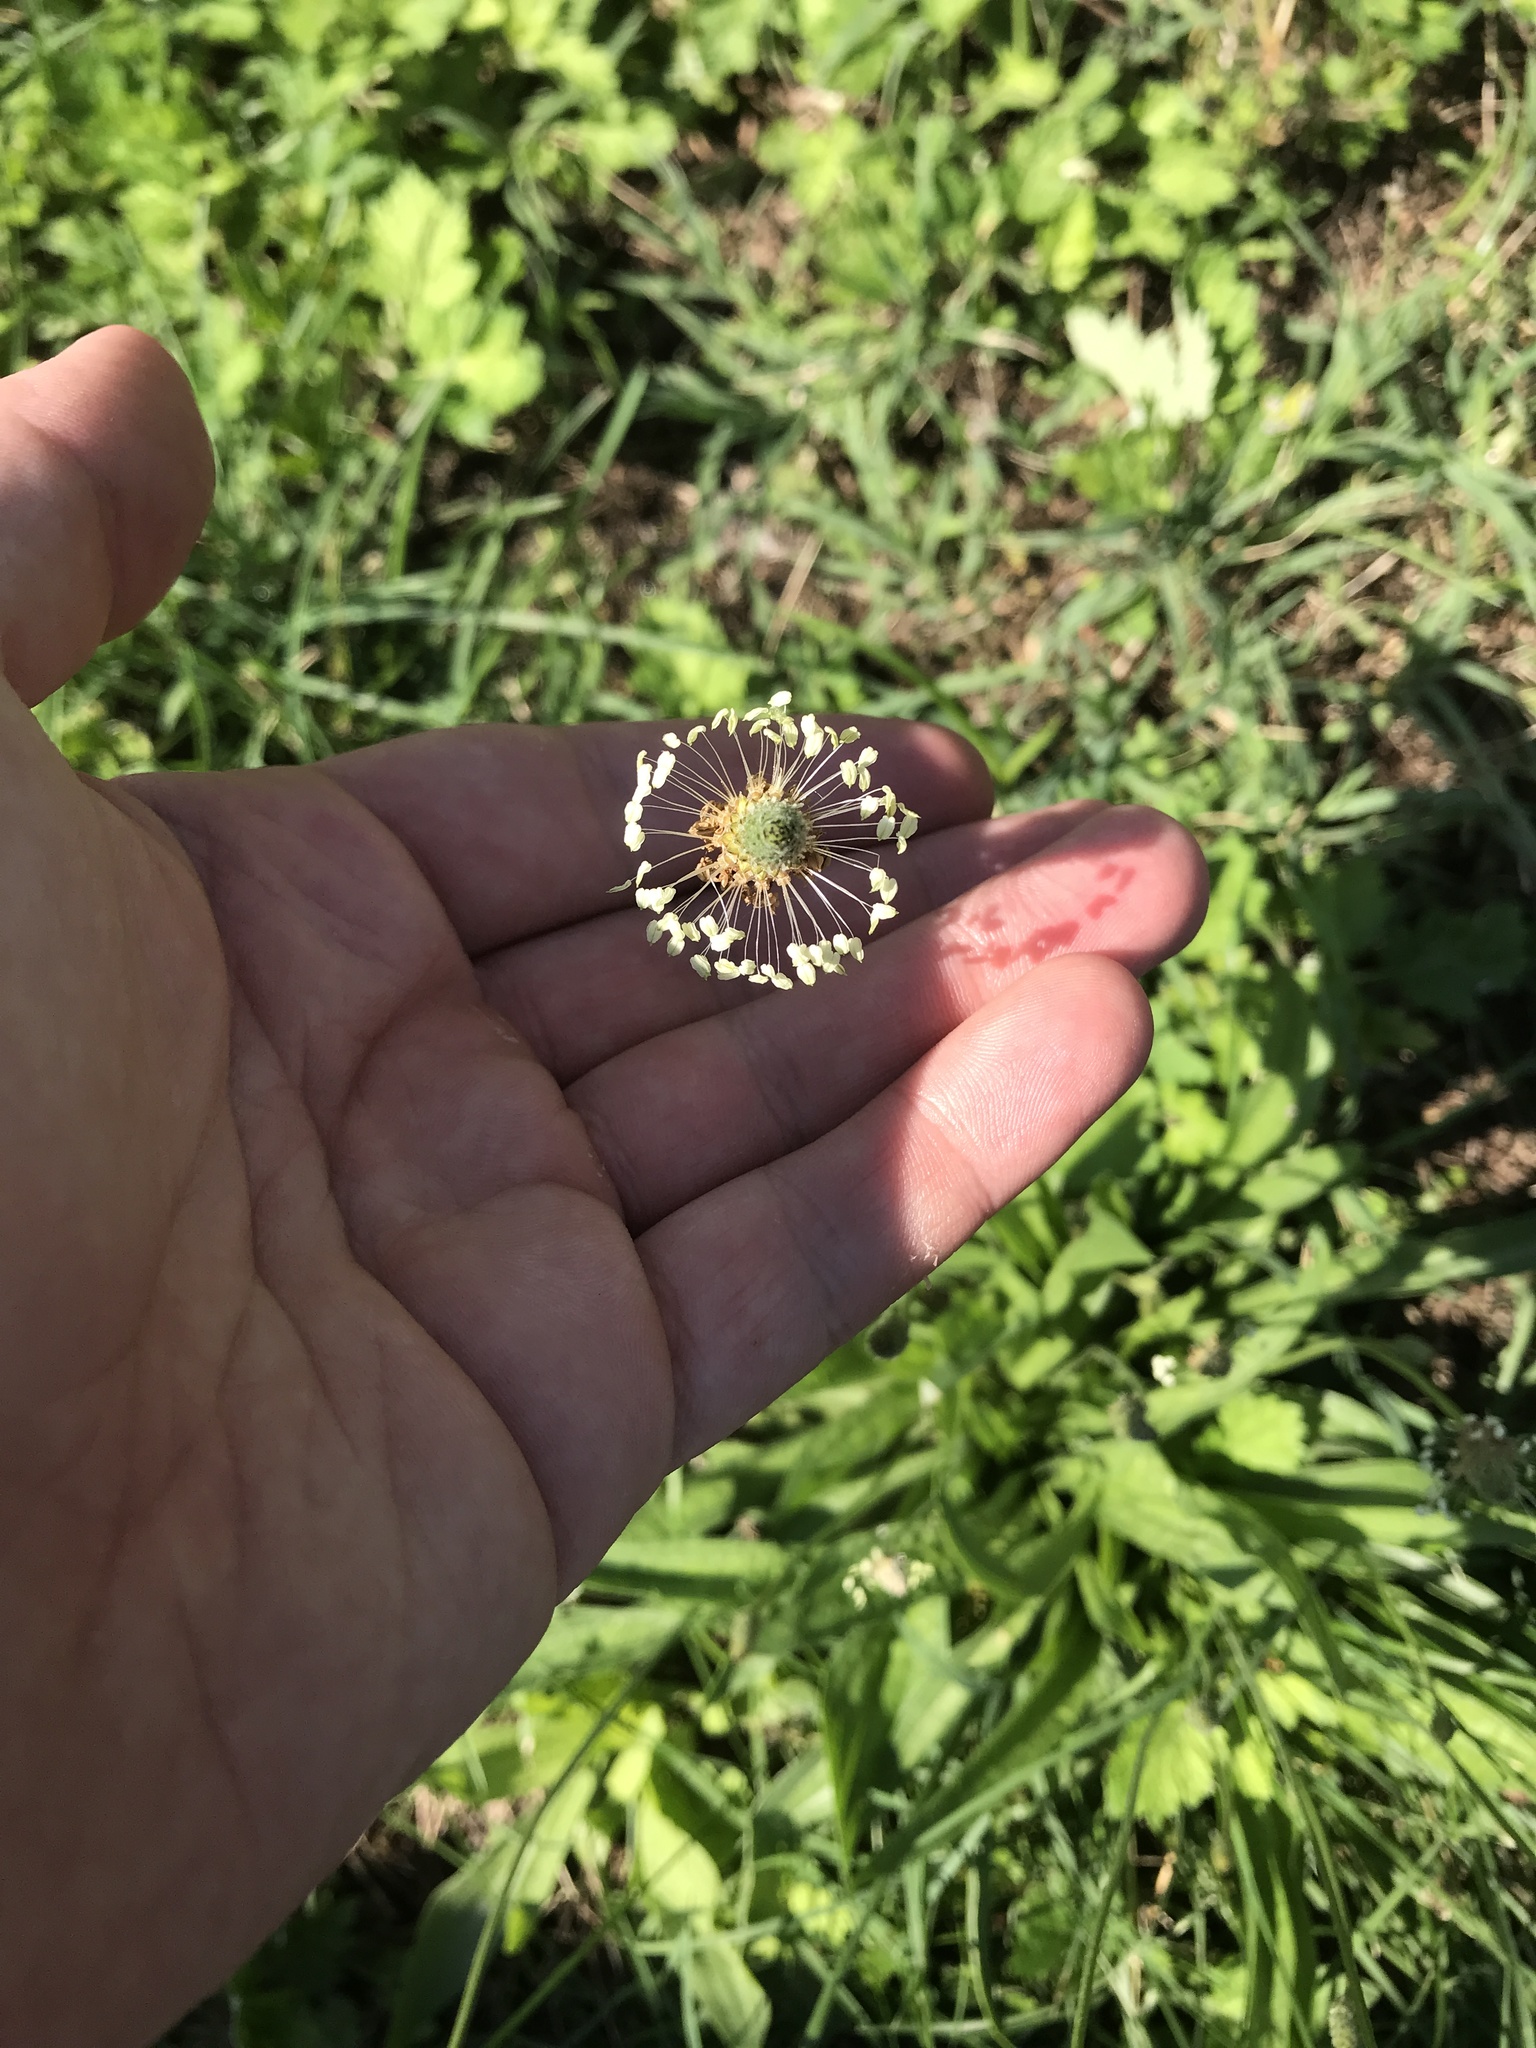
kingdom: Plantae
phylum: Tracheophyta
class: Magnoliopsida
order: Lamiales
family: Plantaginaceae
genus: Plantago
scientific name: Plantago lanceolata
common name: Ribwort plantain
